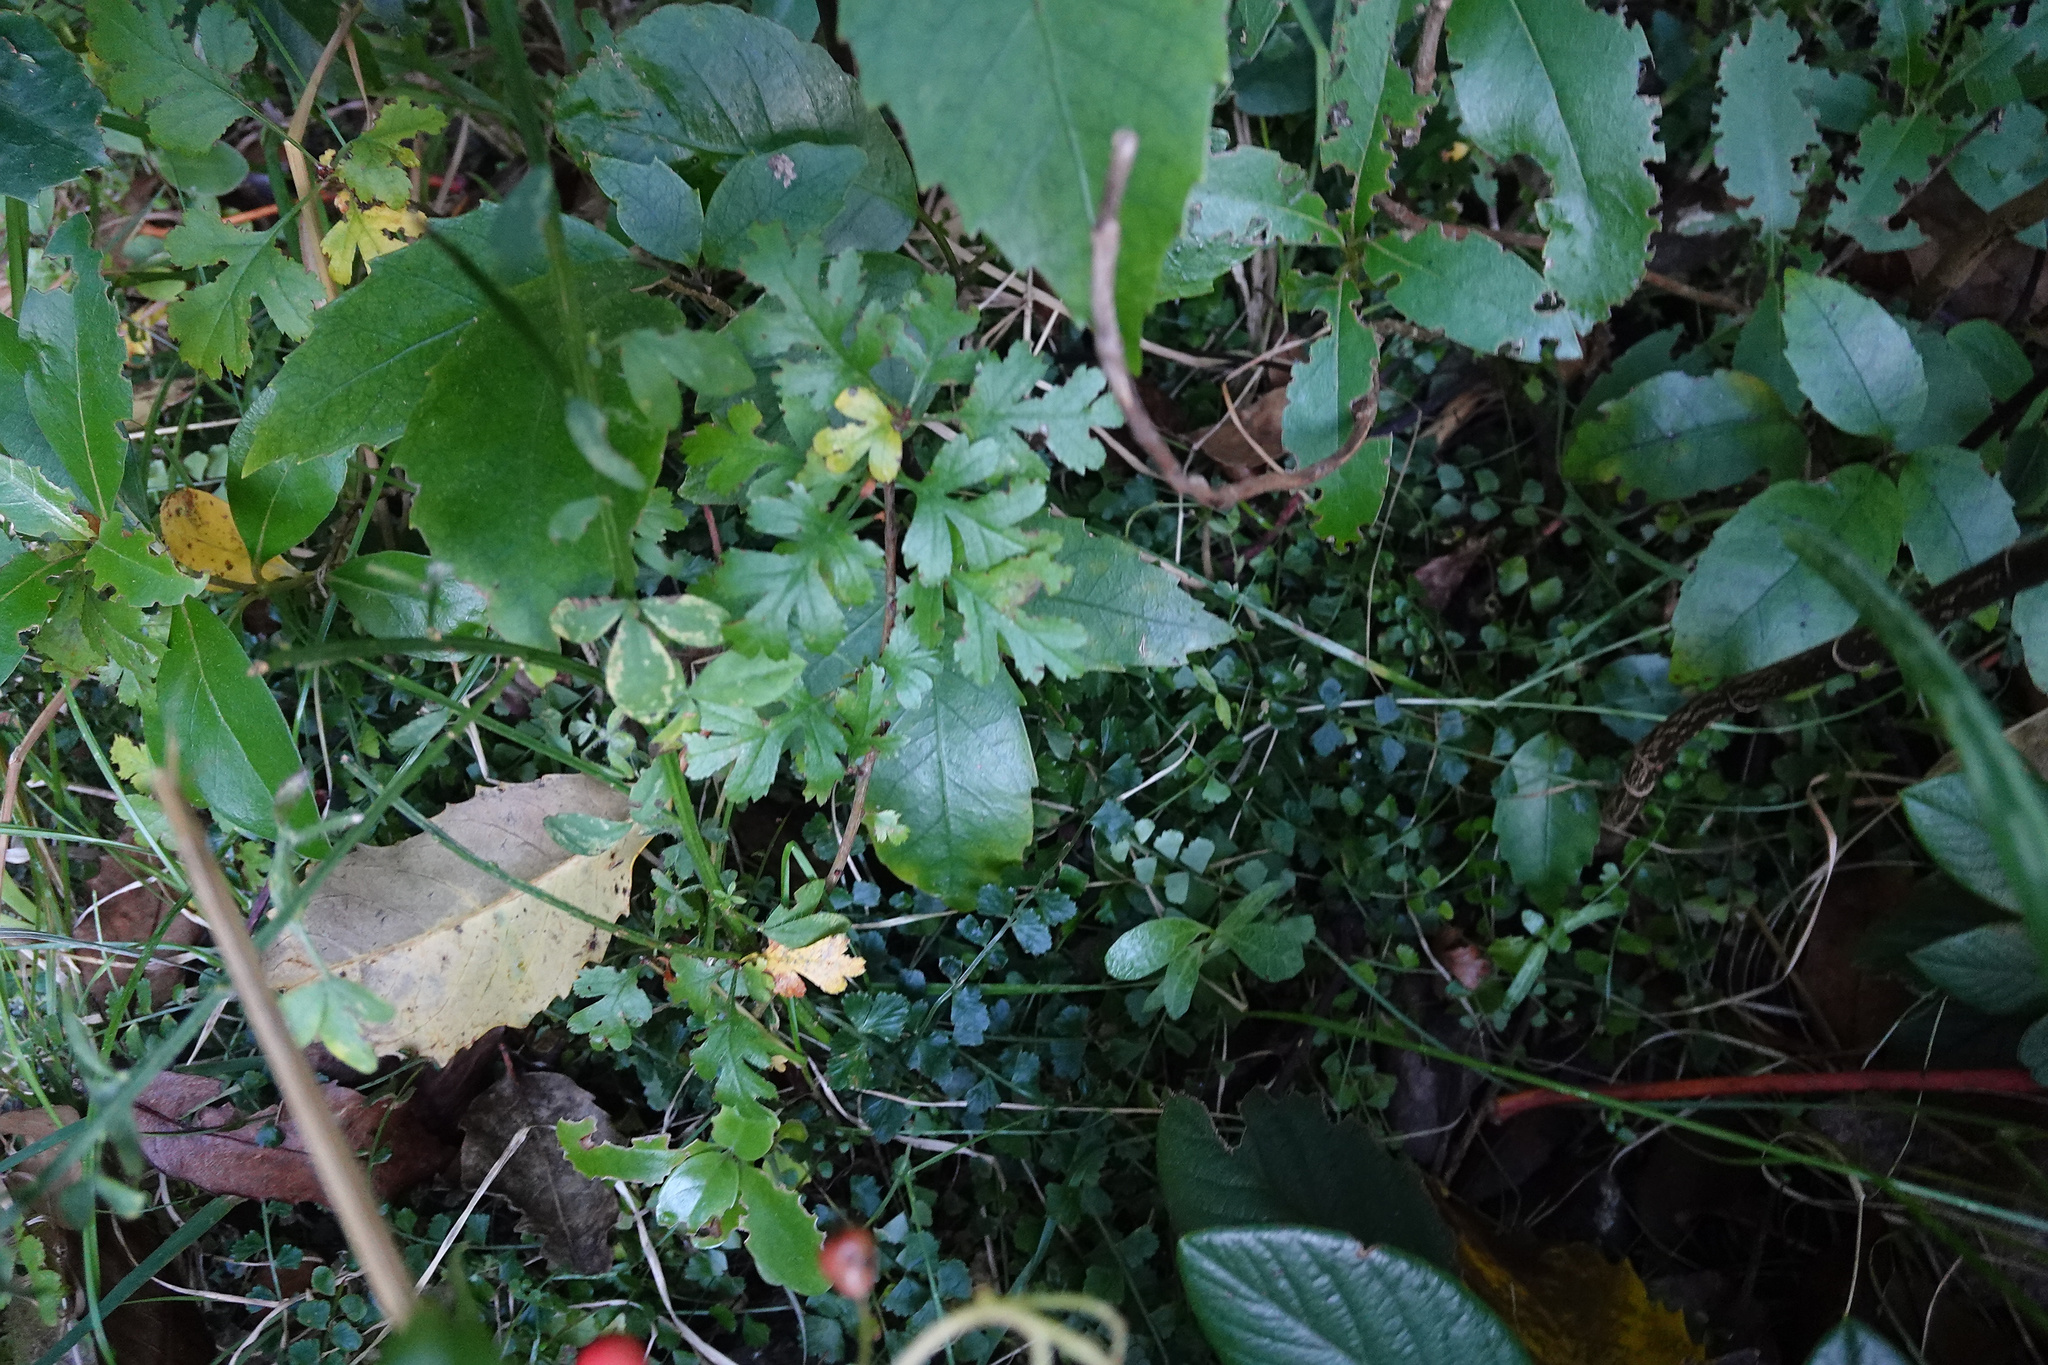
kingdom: Plantae
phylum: Tracheophyta
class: Magnoliopsida
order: Rosales
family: Rosaceae
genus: Crataegus
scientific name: Crataegus monogyna
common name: Hawthorn
